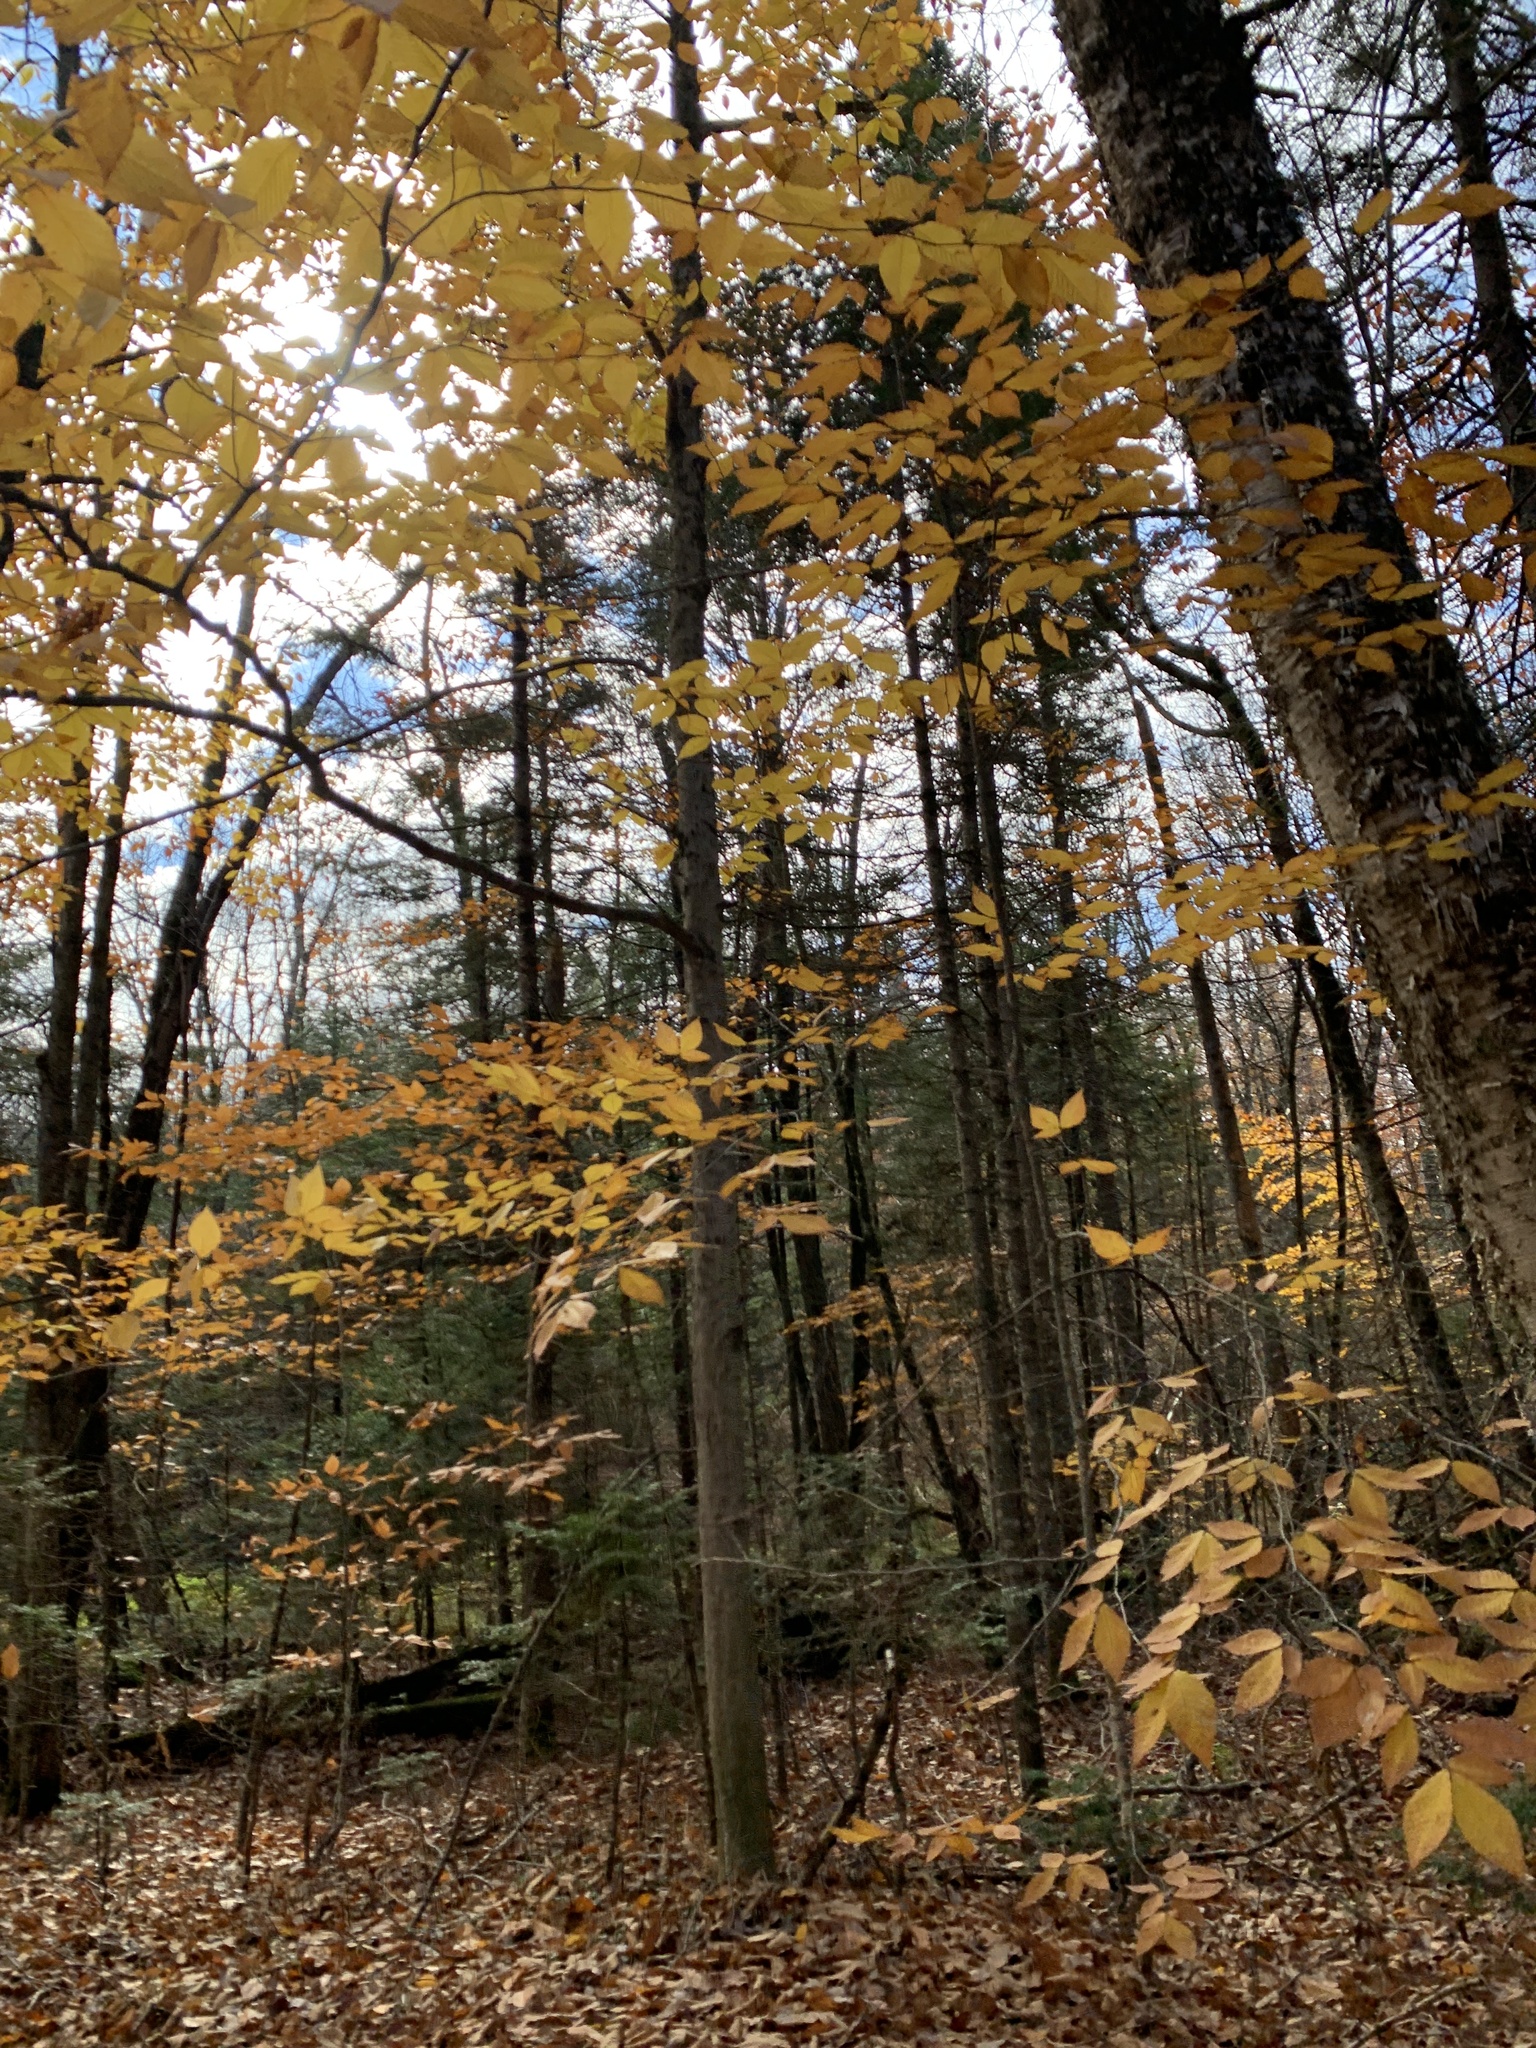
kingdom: Plantae
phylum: Tracheophyta
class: Magnoliopsida
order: Fagales
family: Fagaceae
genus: Fagus
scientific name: Fagus grandifolia
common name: American beech
